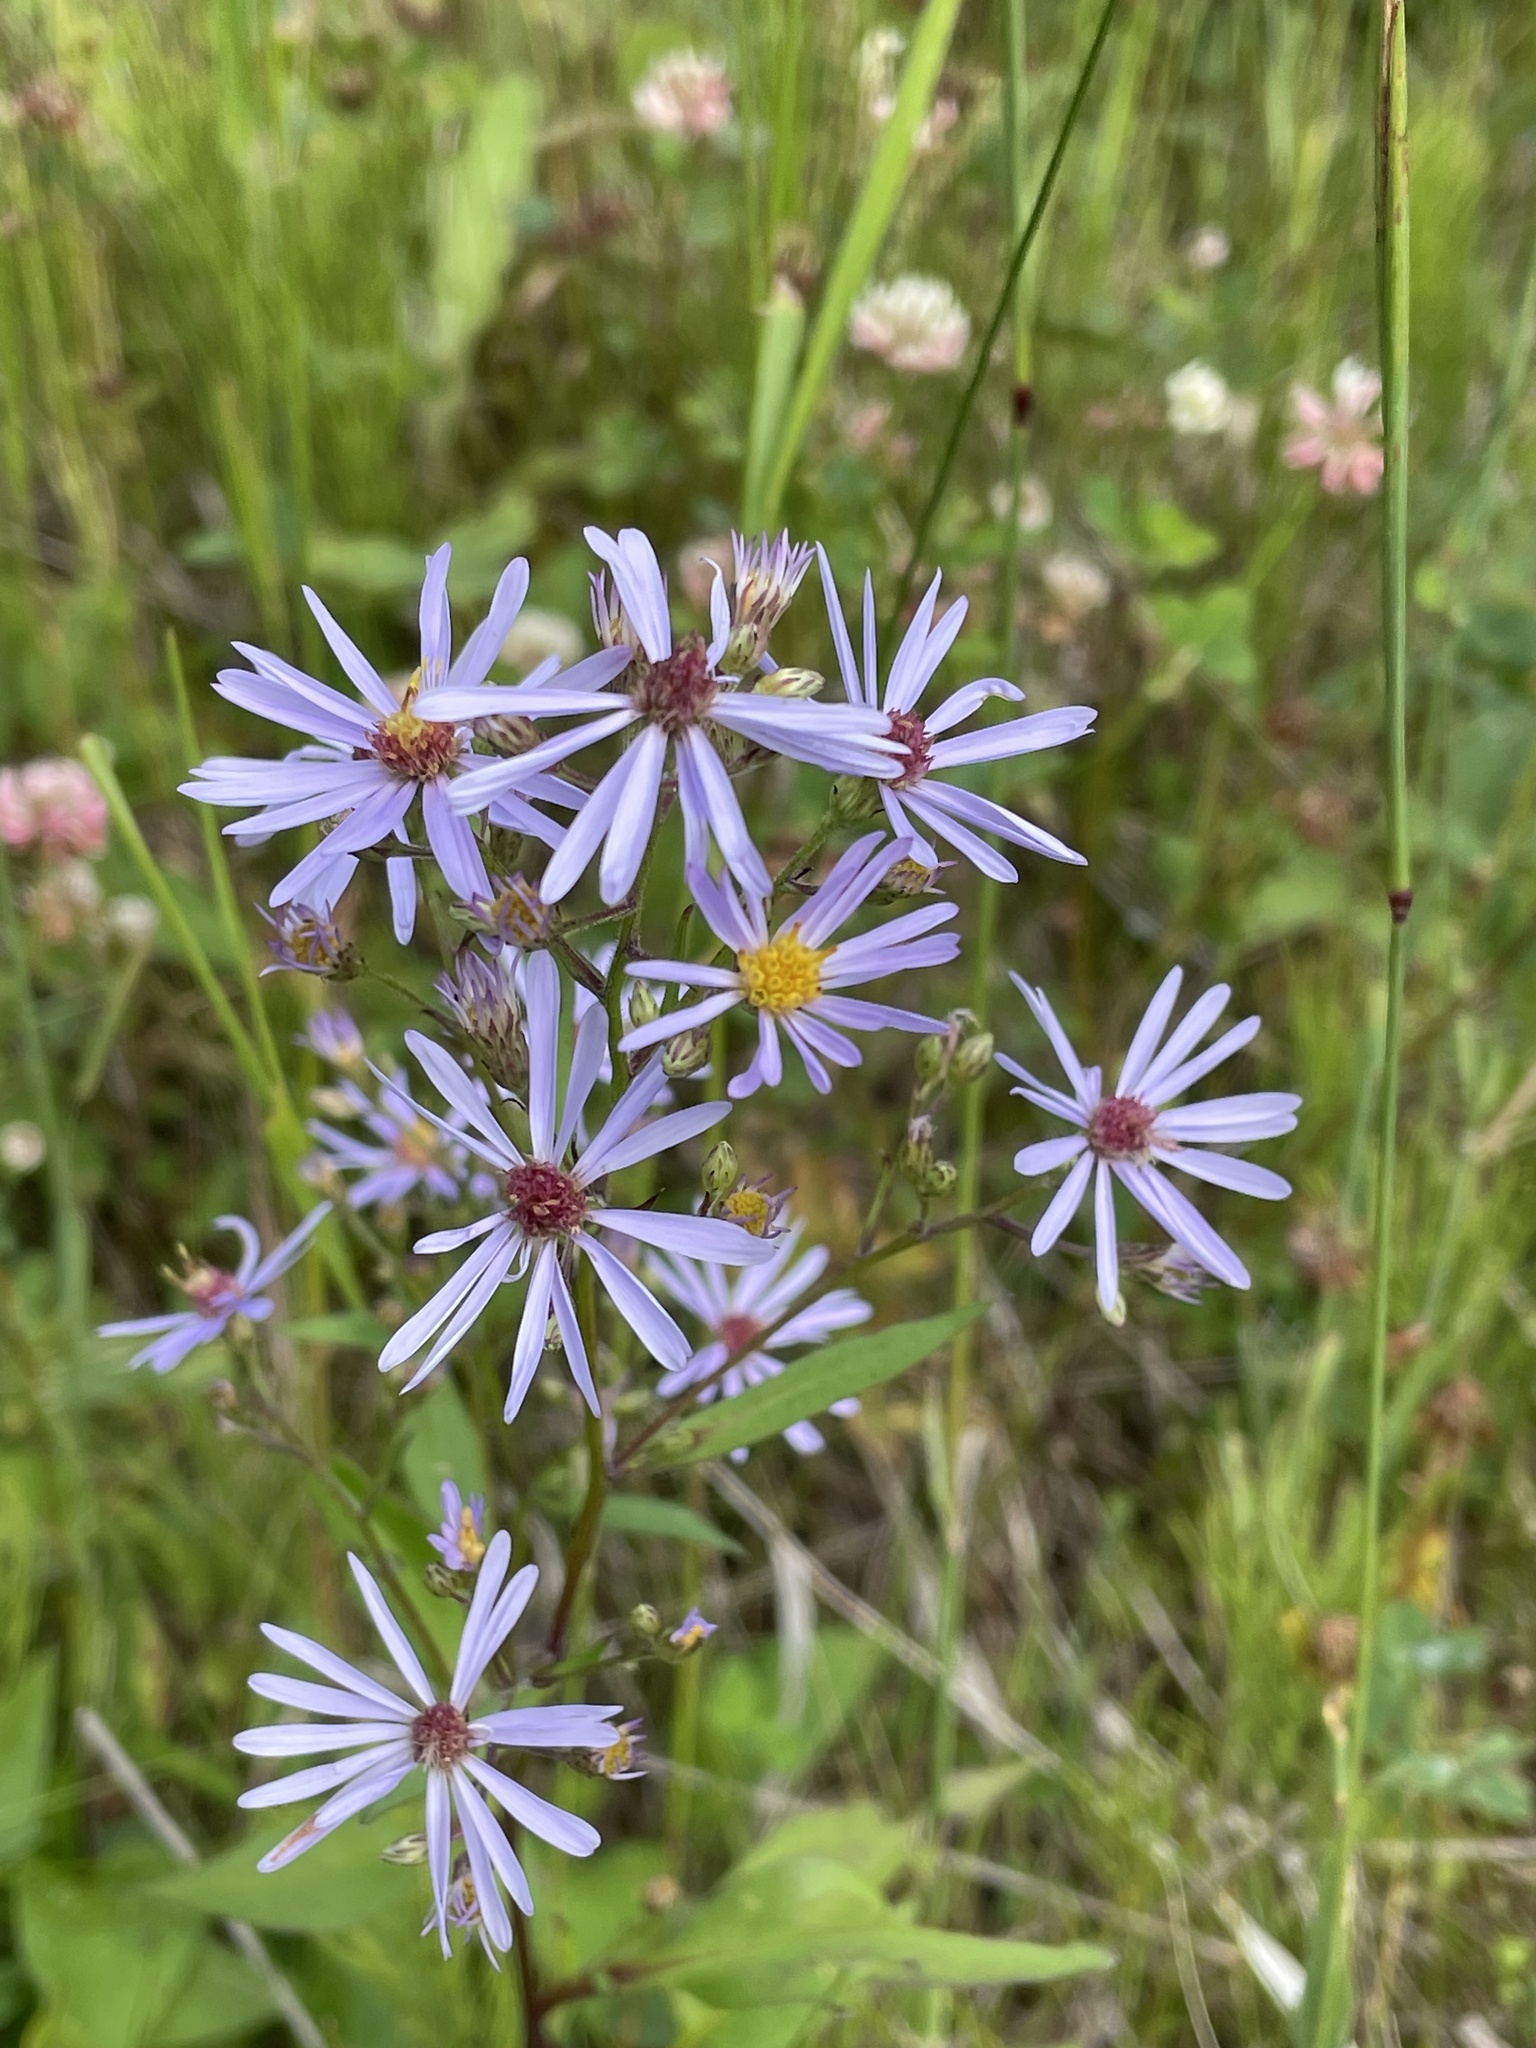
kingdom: Plantae
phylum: Tracheophyta
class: Magnoliopsida
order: Asterales
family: Asteraceae
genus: Symphyotrichum
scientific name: Symphyotrichum ciliolatum
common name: Fringed blue aster
